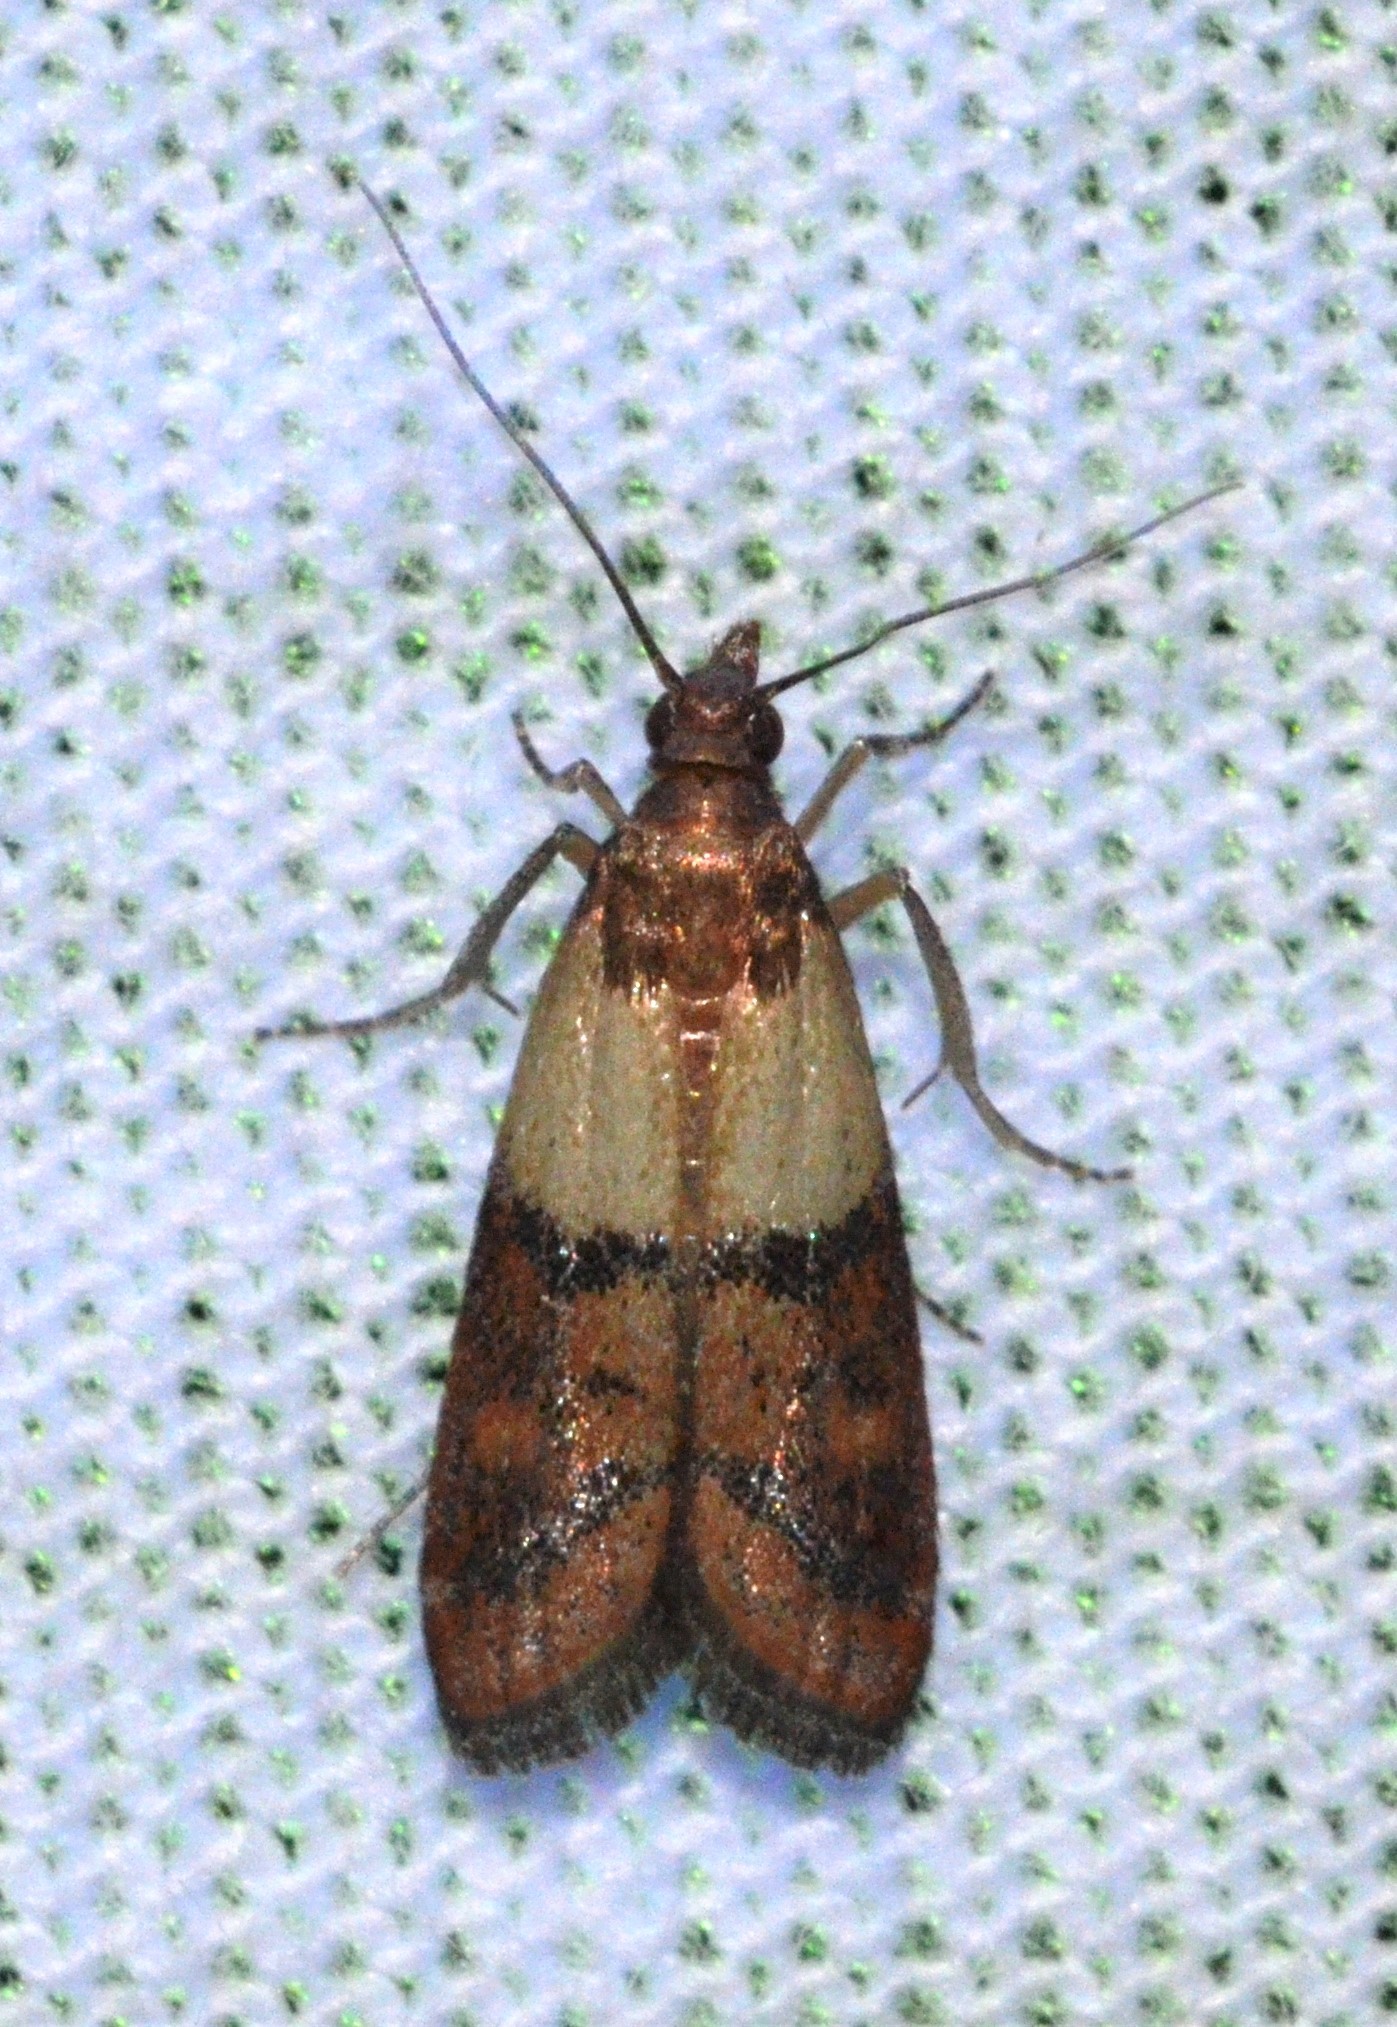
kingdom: Animalia
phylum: Arthropoda
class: Insecta
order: Lepidoptera
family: Pyralidae
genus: Plodia
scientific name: Plodia interpunctella
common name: Indian meal moth
